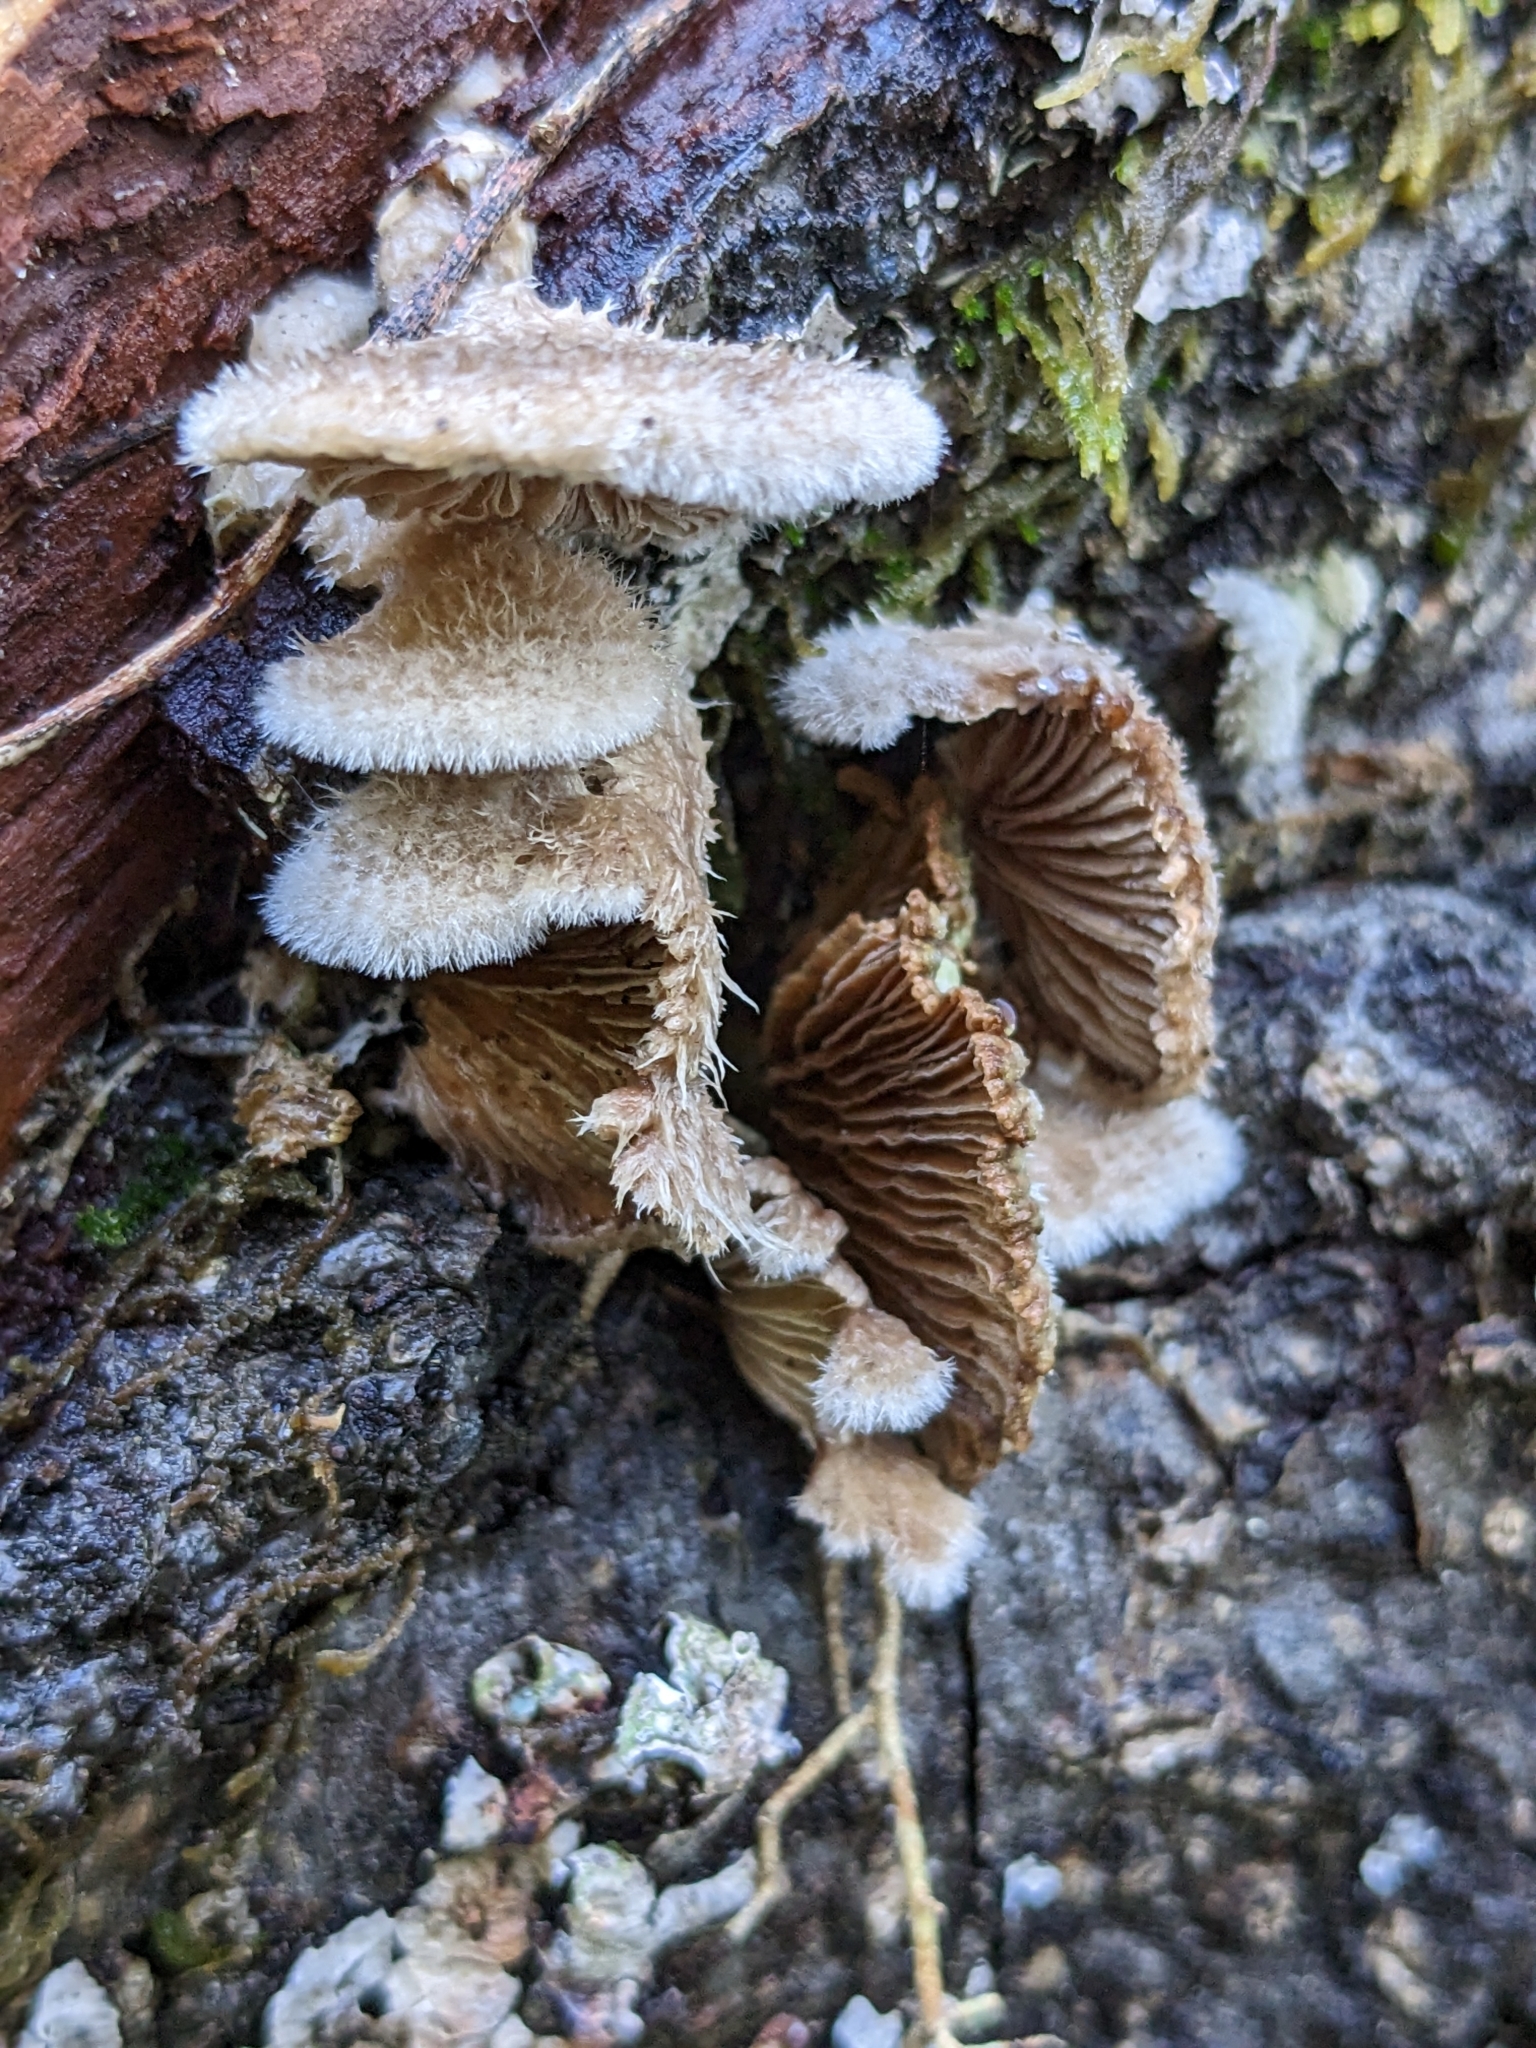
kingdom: Fungi
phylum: Basidiomycota
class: Agaricomycetes
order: Agaricales
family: Schizophyllaceae
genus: Schizophyllum
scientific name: Schizophyllum commune
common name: Common porecrust
